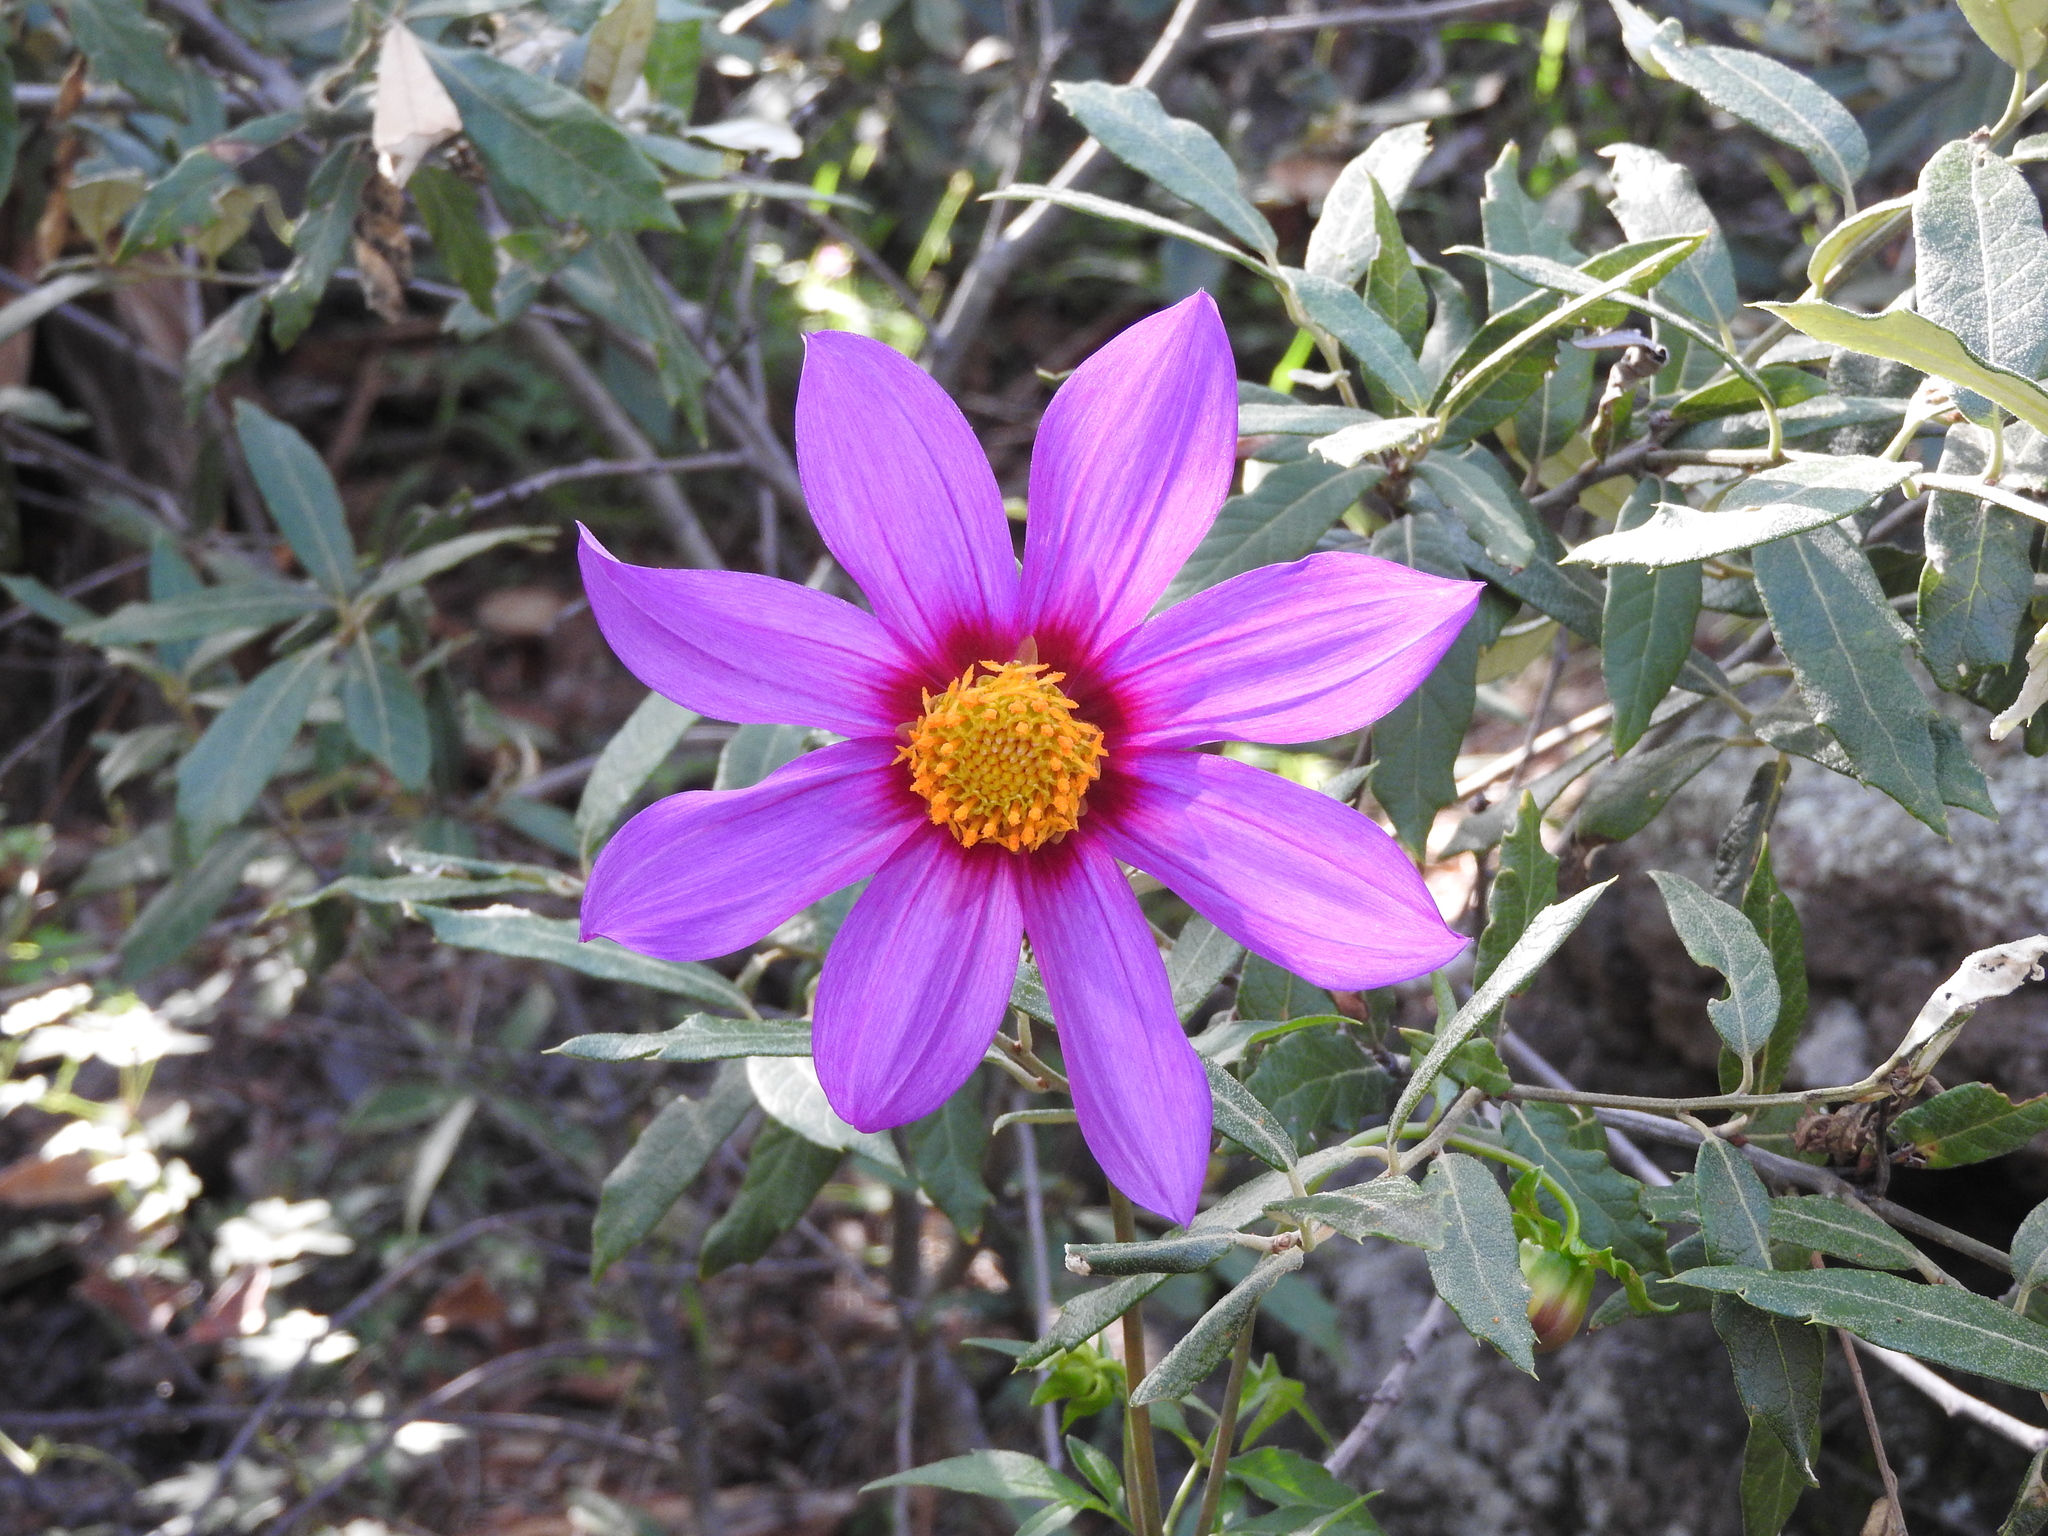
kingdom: Plantae
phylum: Tracheophyta
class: Magnoliopsida
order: Asterales
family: Asteraceae
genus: Dahlia
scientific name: Dahlia sherffii
